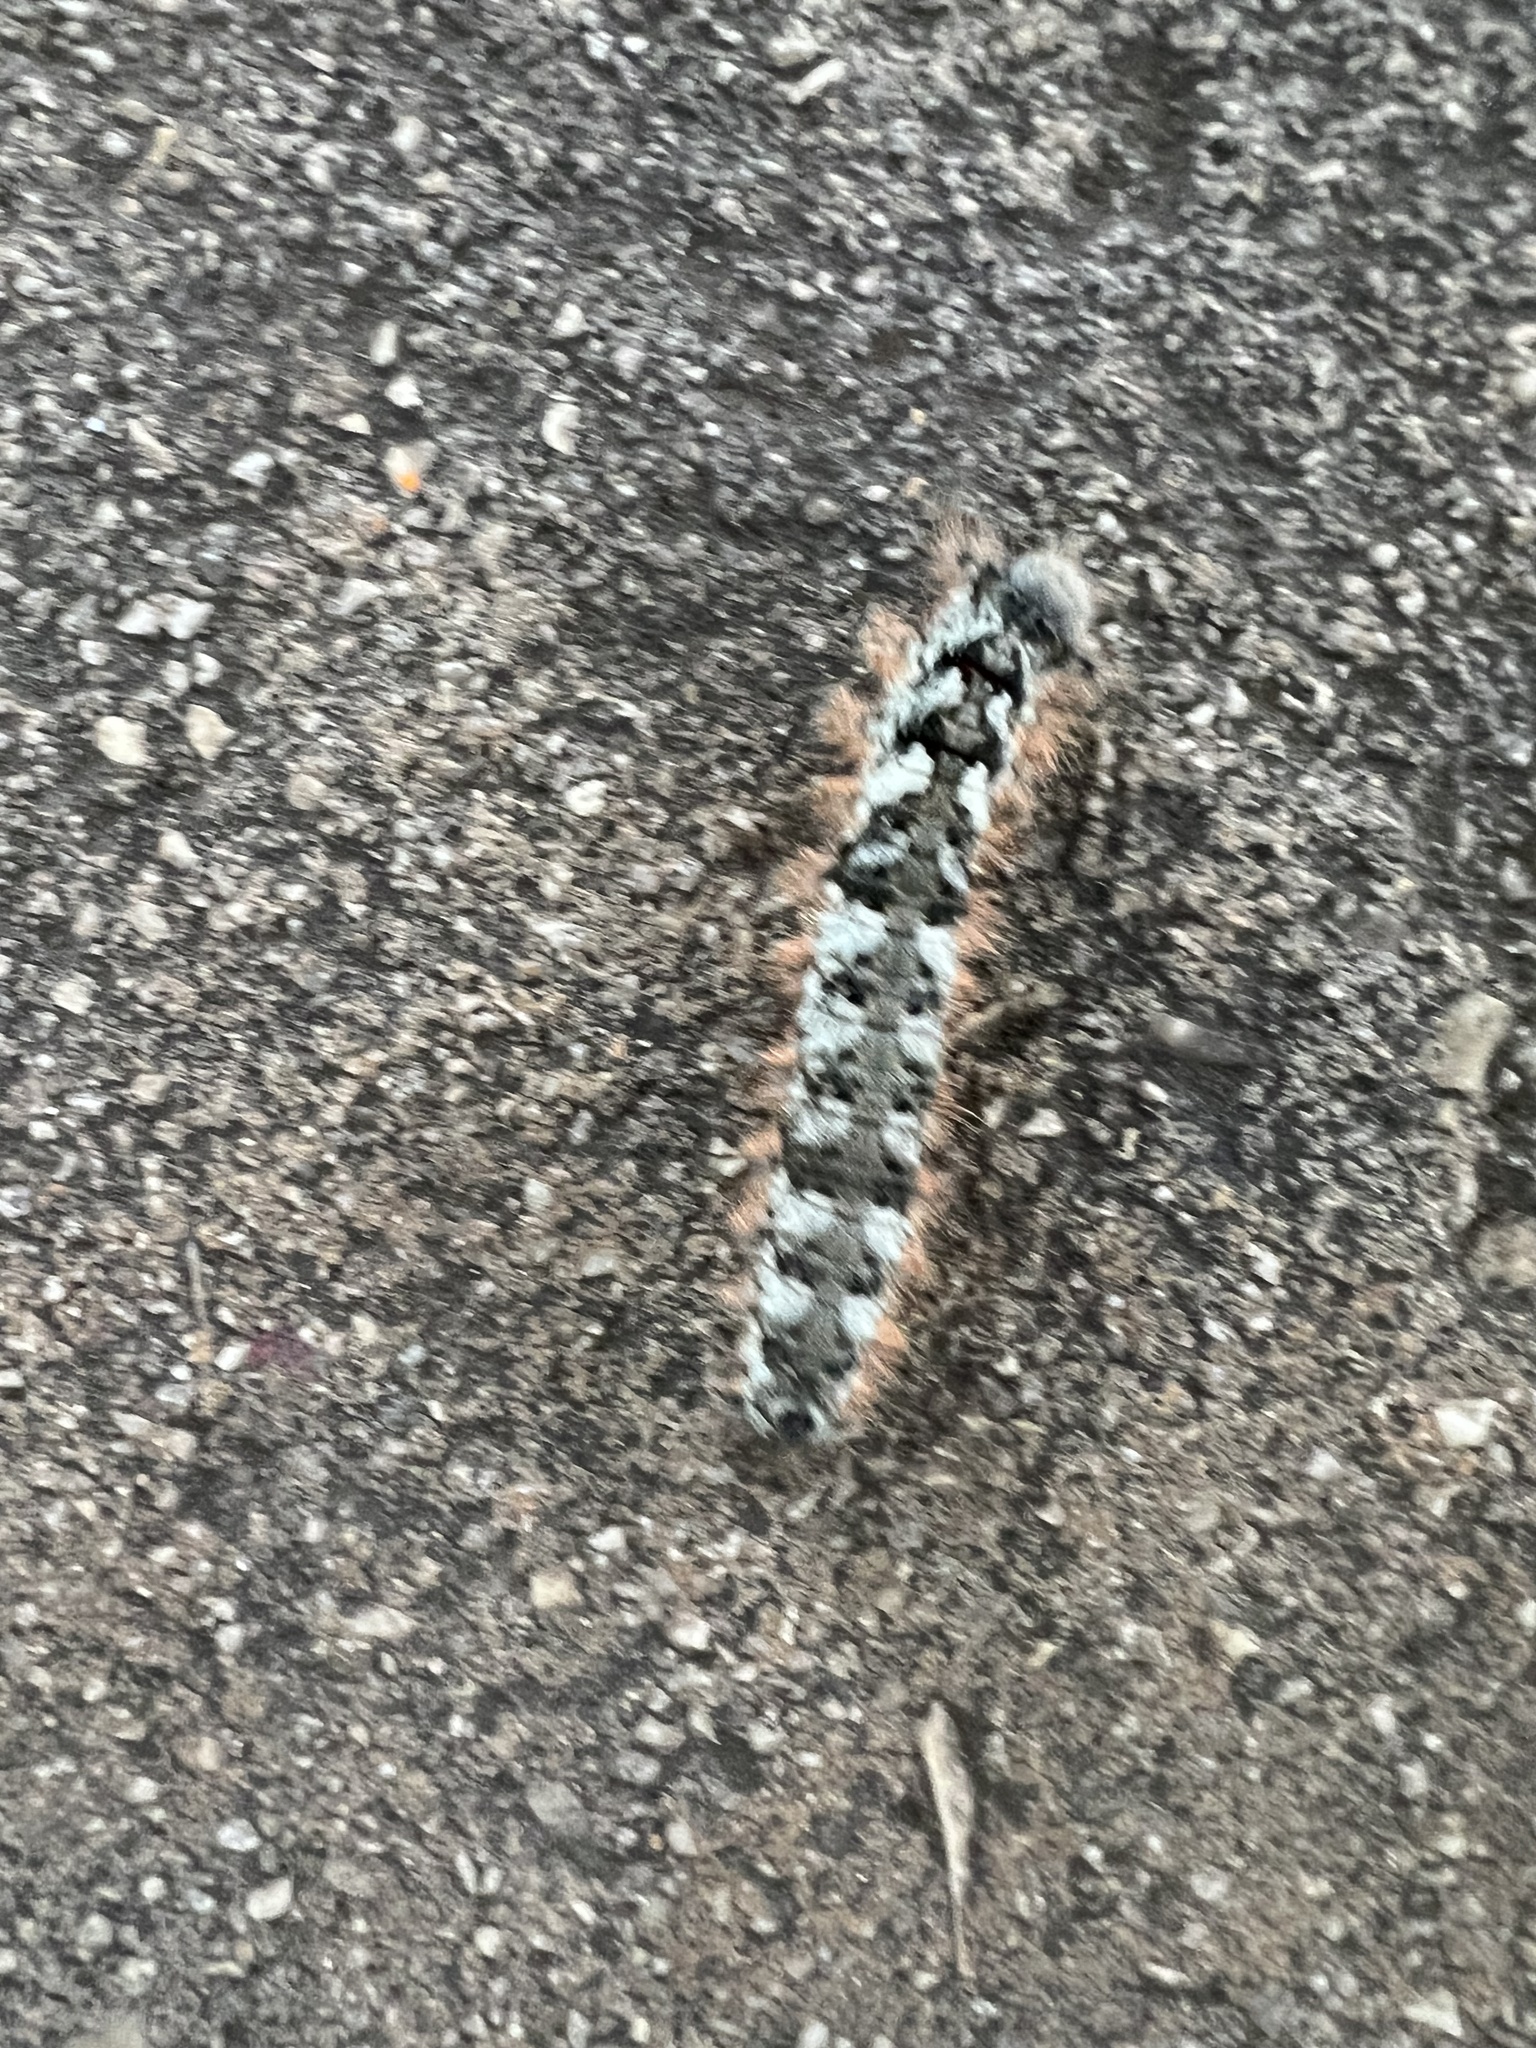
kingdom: Animalia
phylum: Arthropoda
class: Insecta
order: Lepidoptera
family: Lasiocampidae
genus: Phyllodesma
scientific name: Phyllodesma americana
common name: American lappet moth
